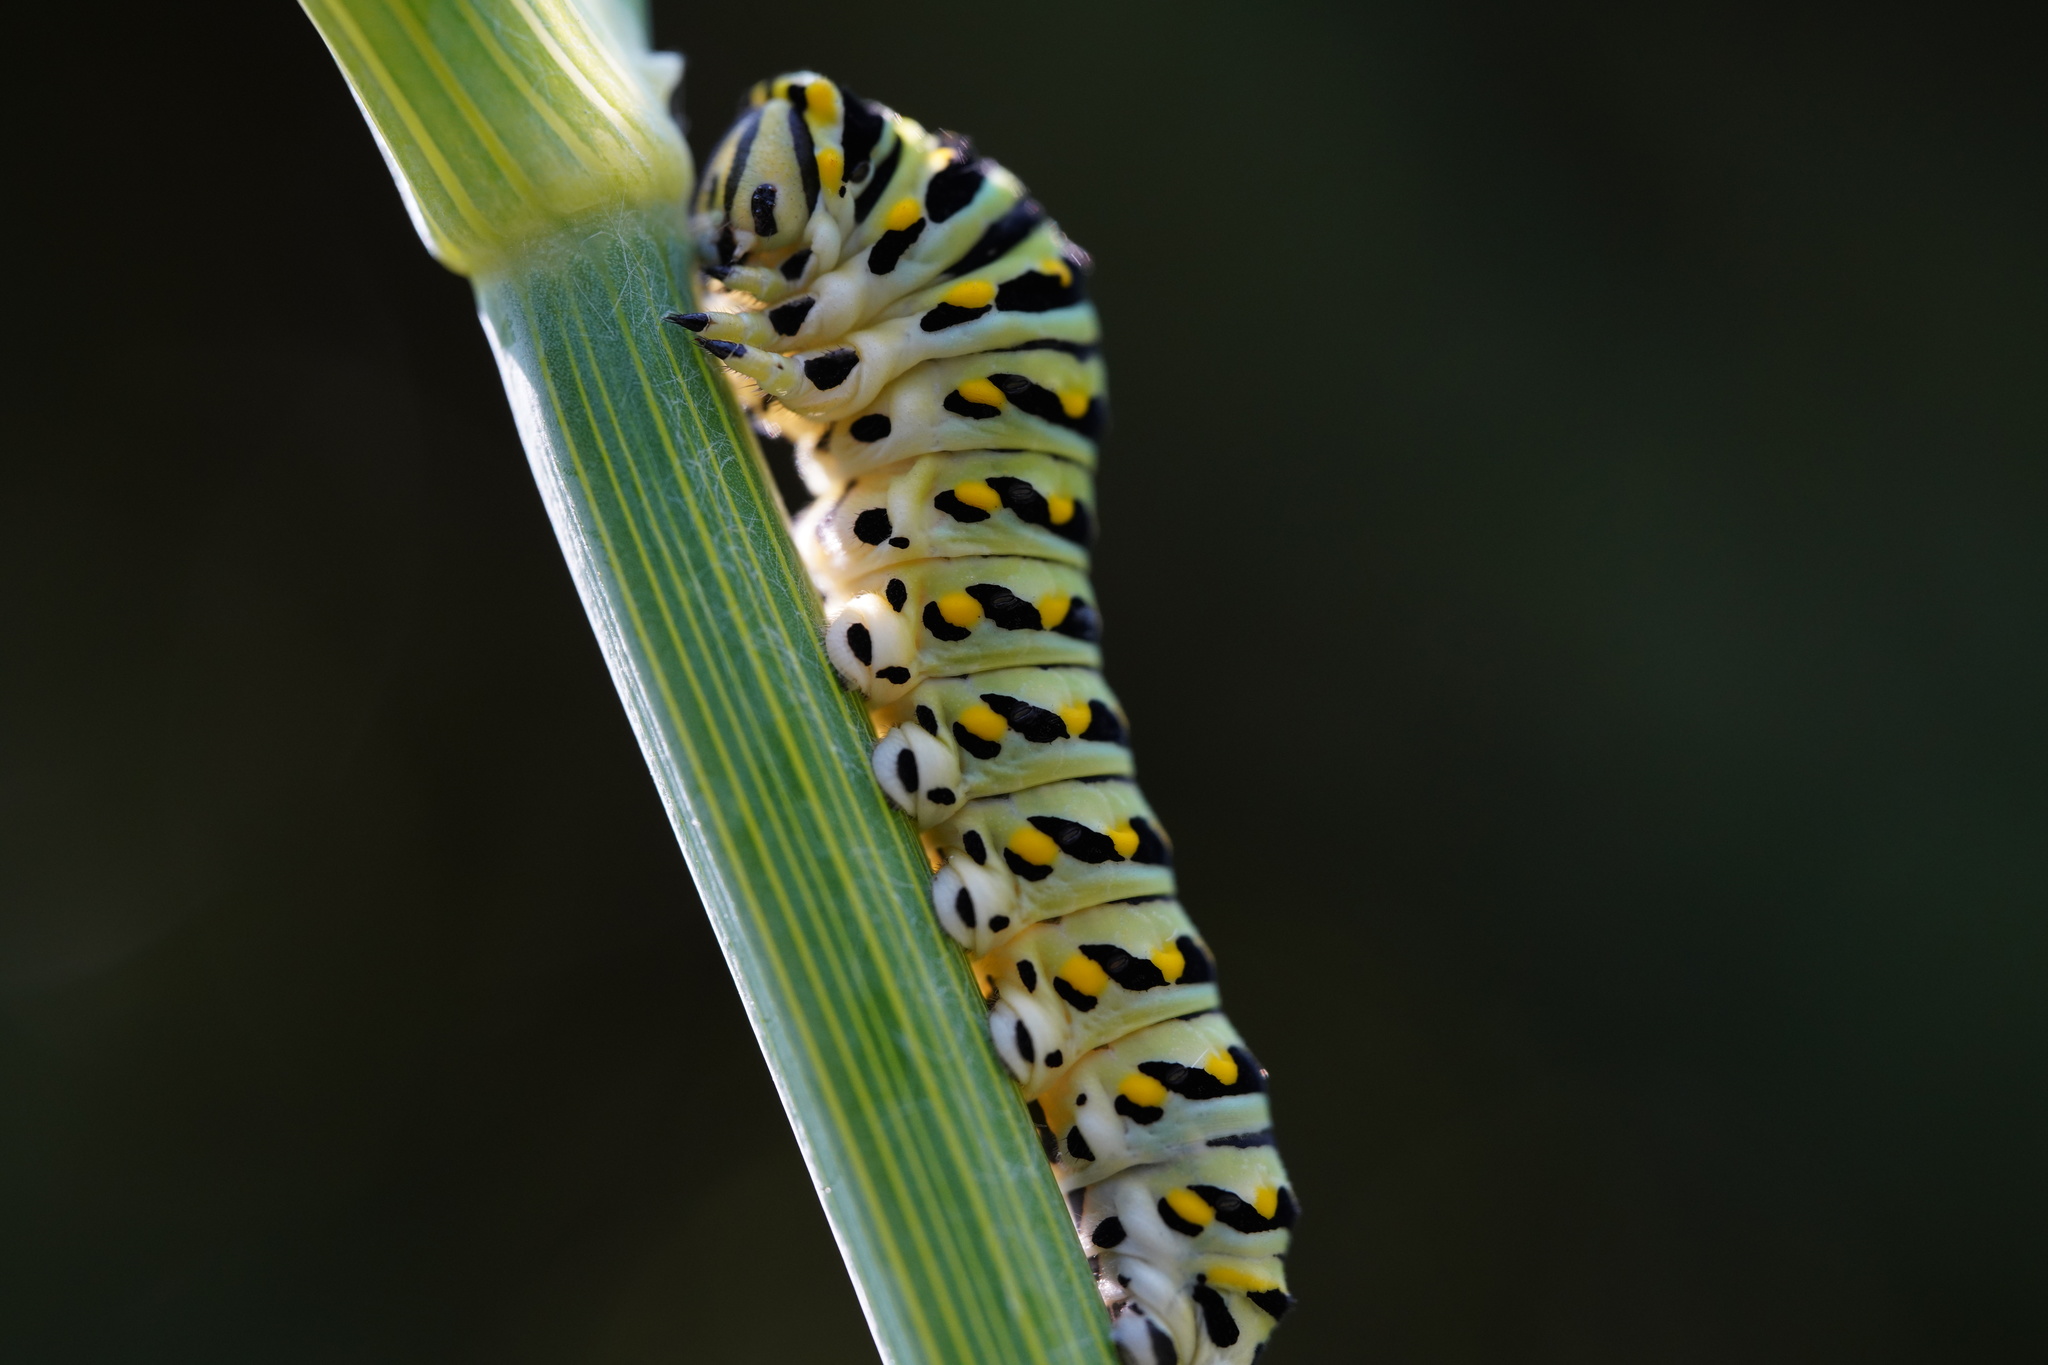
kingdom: Animalia
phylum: Arthropoda
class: Insecta
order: Lepidoptera
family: Papilionidae
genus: Papilio
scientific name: Papilio polyxenes
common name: Black swallowtail
